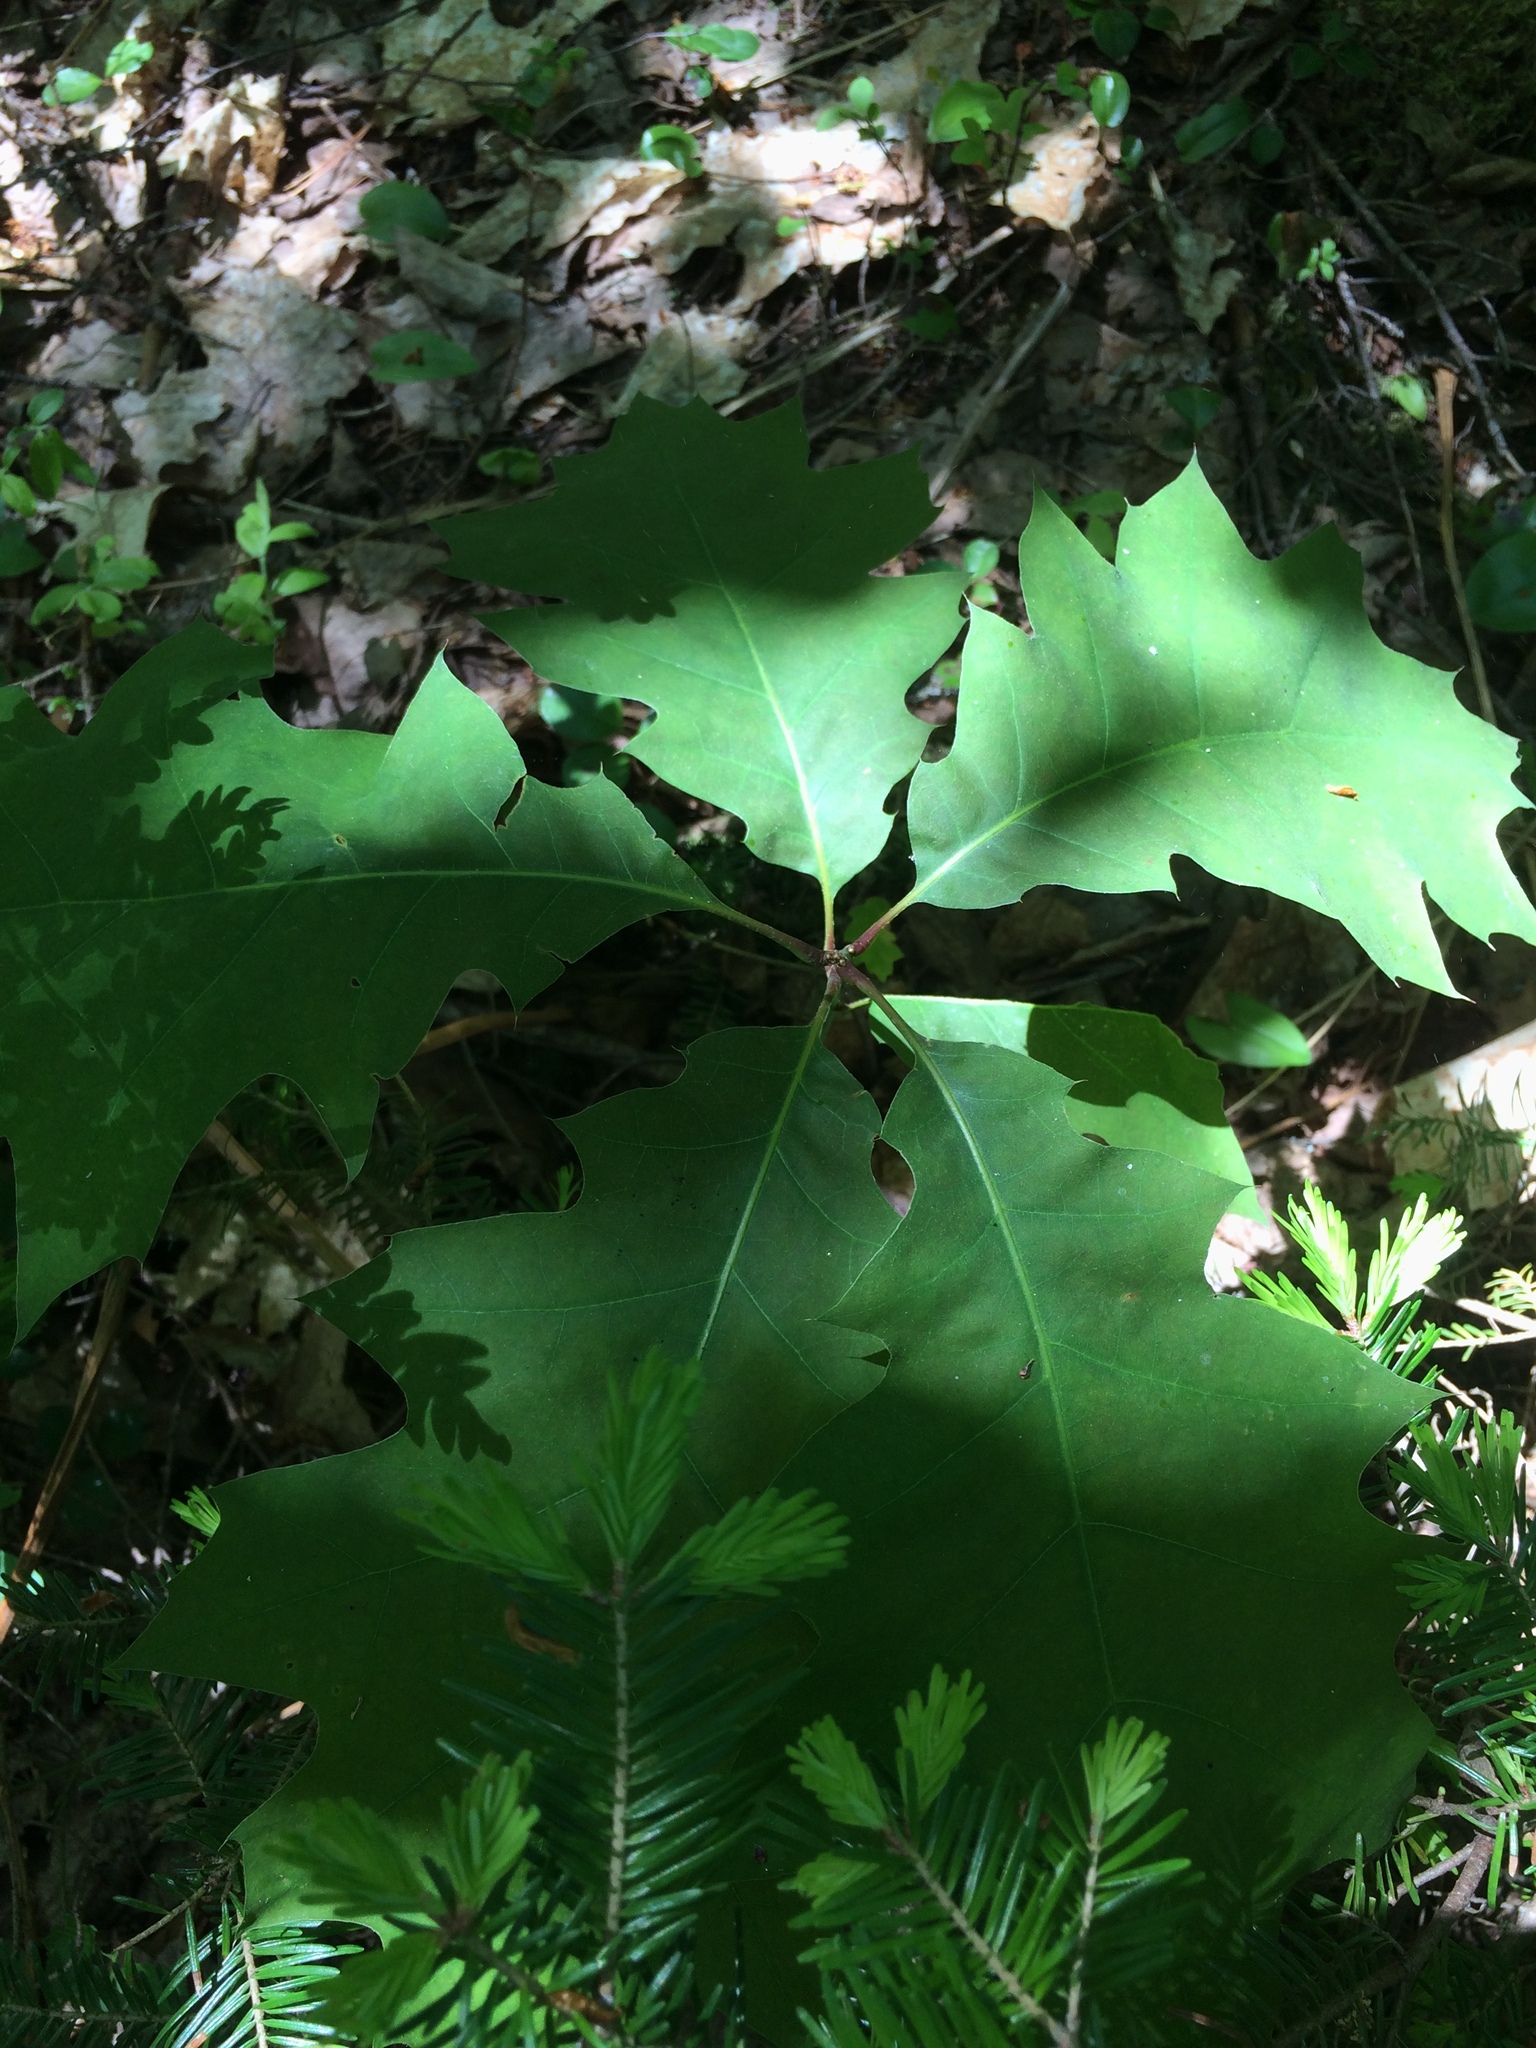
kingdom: Plantae
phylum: Tracheophyta
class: Magnoliopsida
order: Fagales
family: Fagaceae
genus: Quercus
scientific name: Quercus rubra
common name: Red oak
